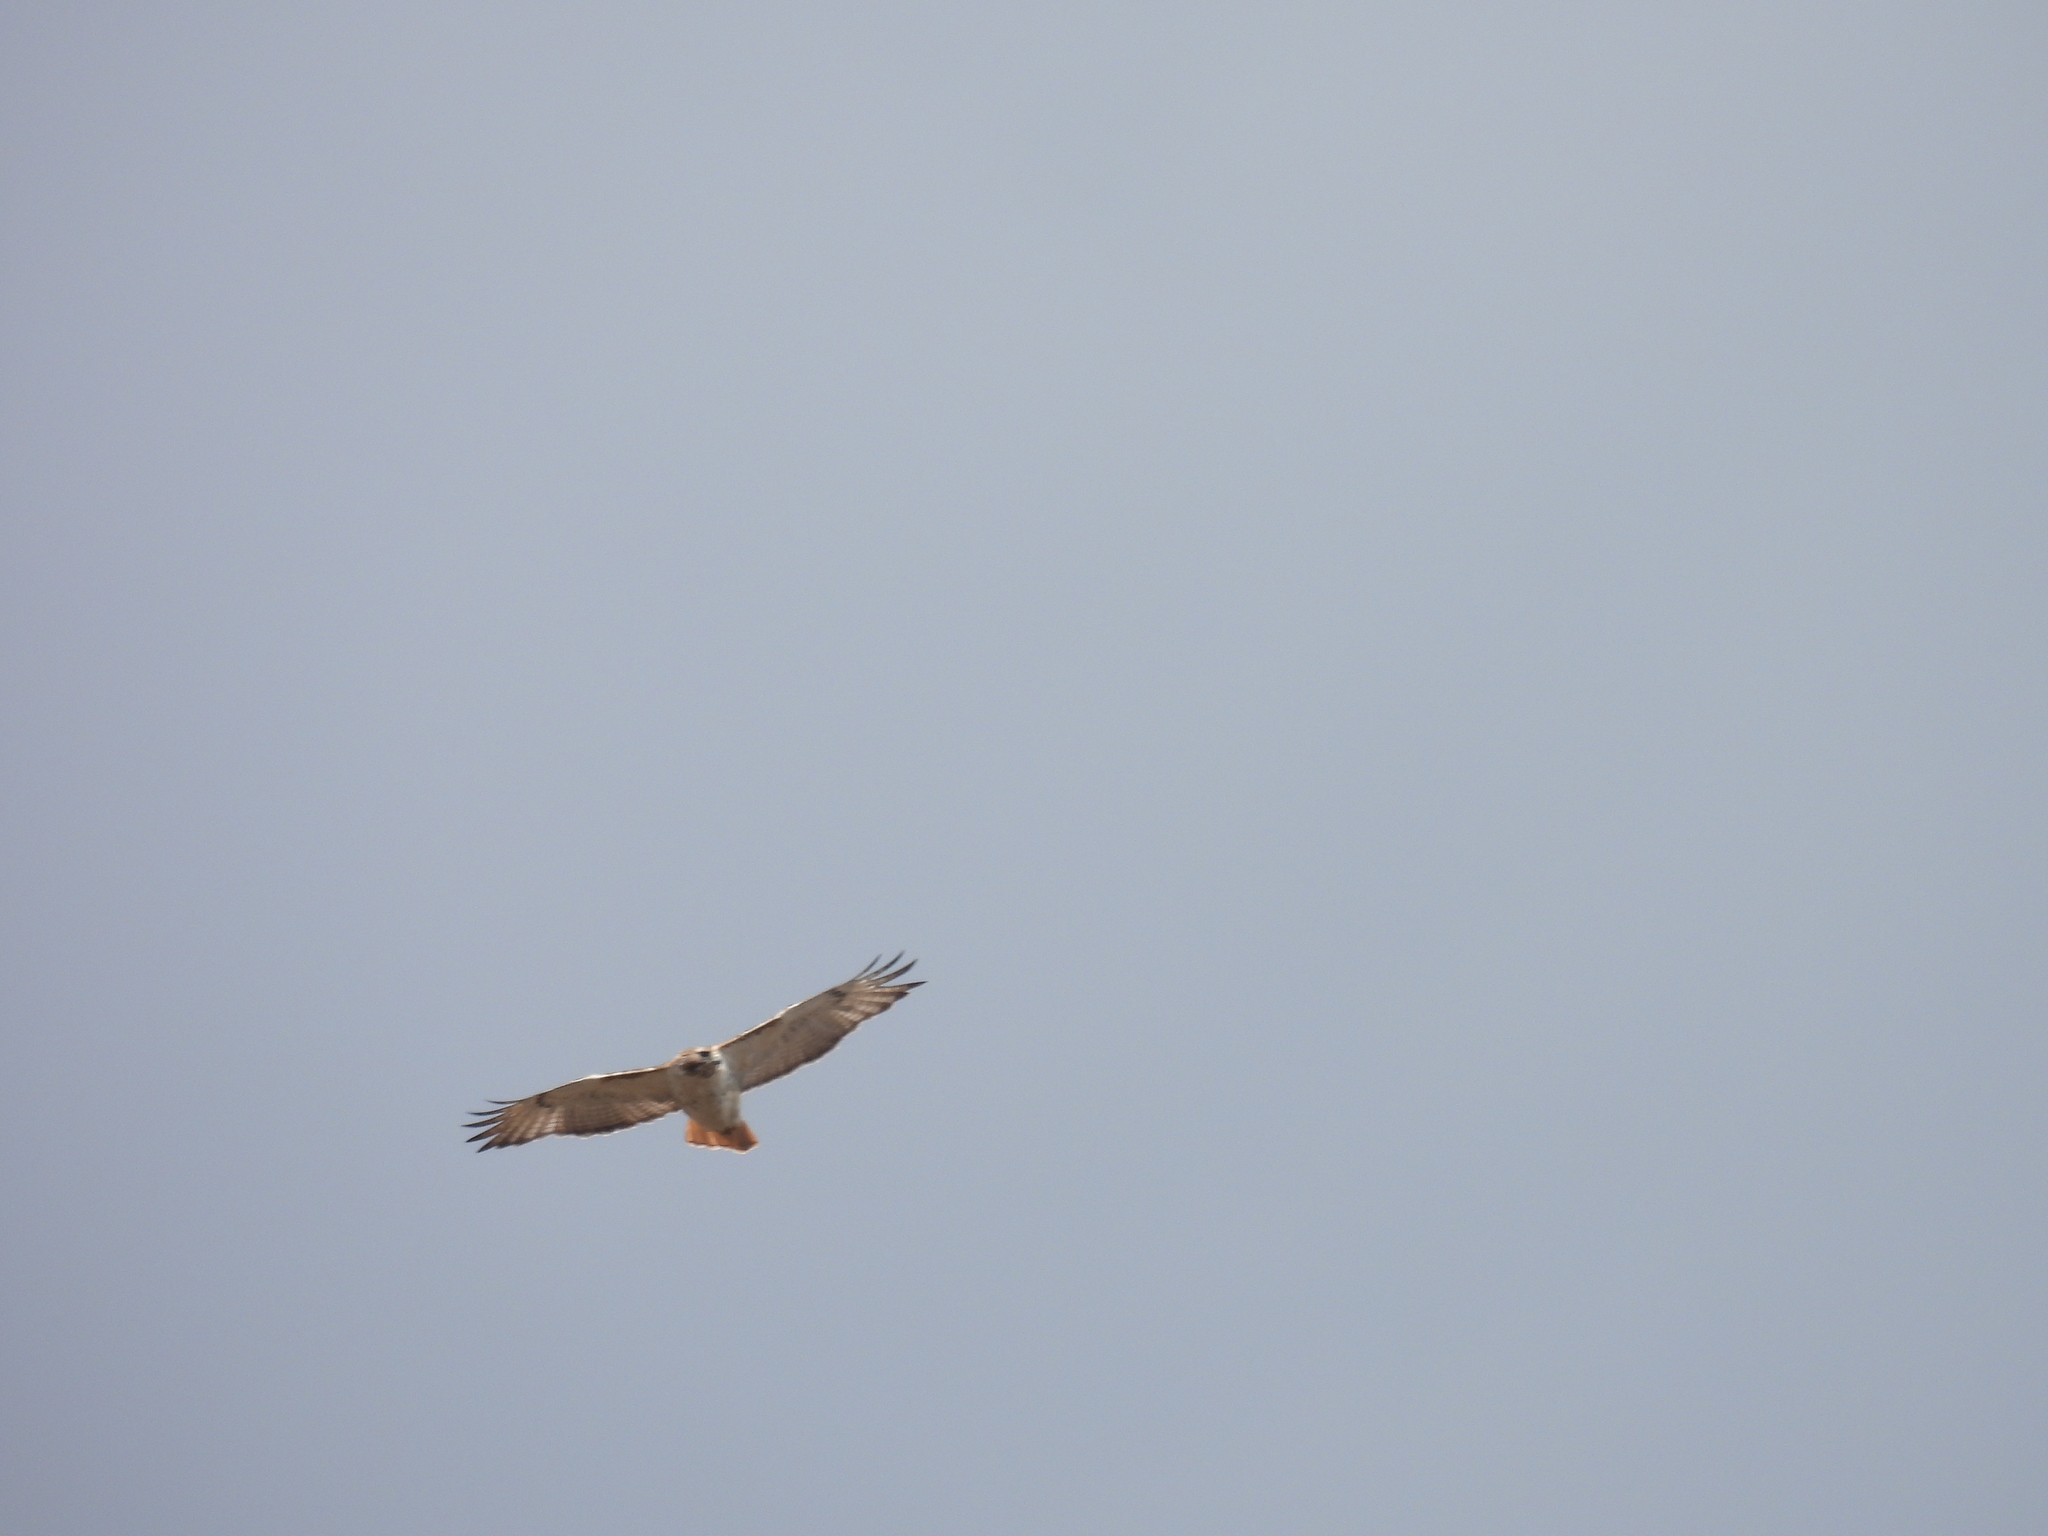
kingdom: Animalia
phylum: Chordata
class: Aves
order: Accipitriformes
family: Accipitridae
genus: Buteo
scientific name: Buteo jamaicensis
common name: Red-tailed hawk
